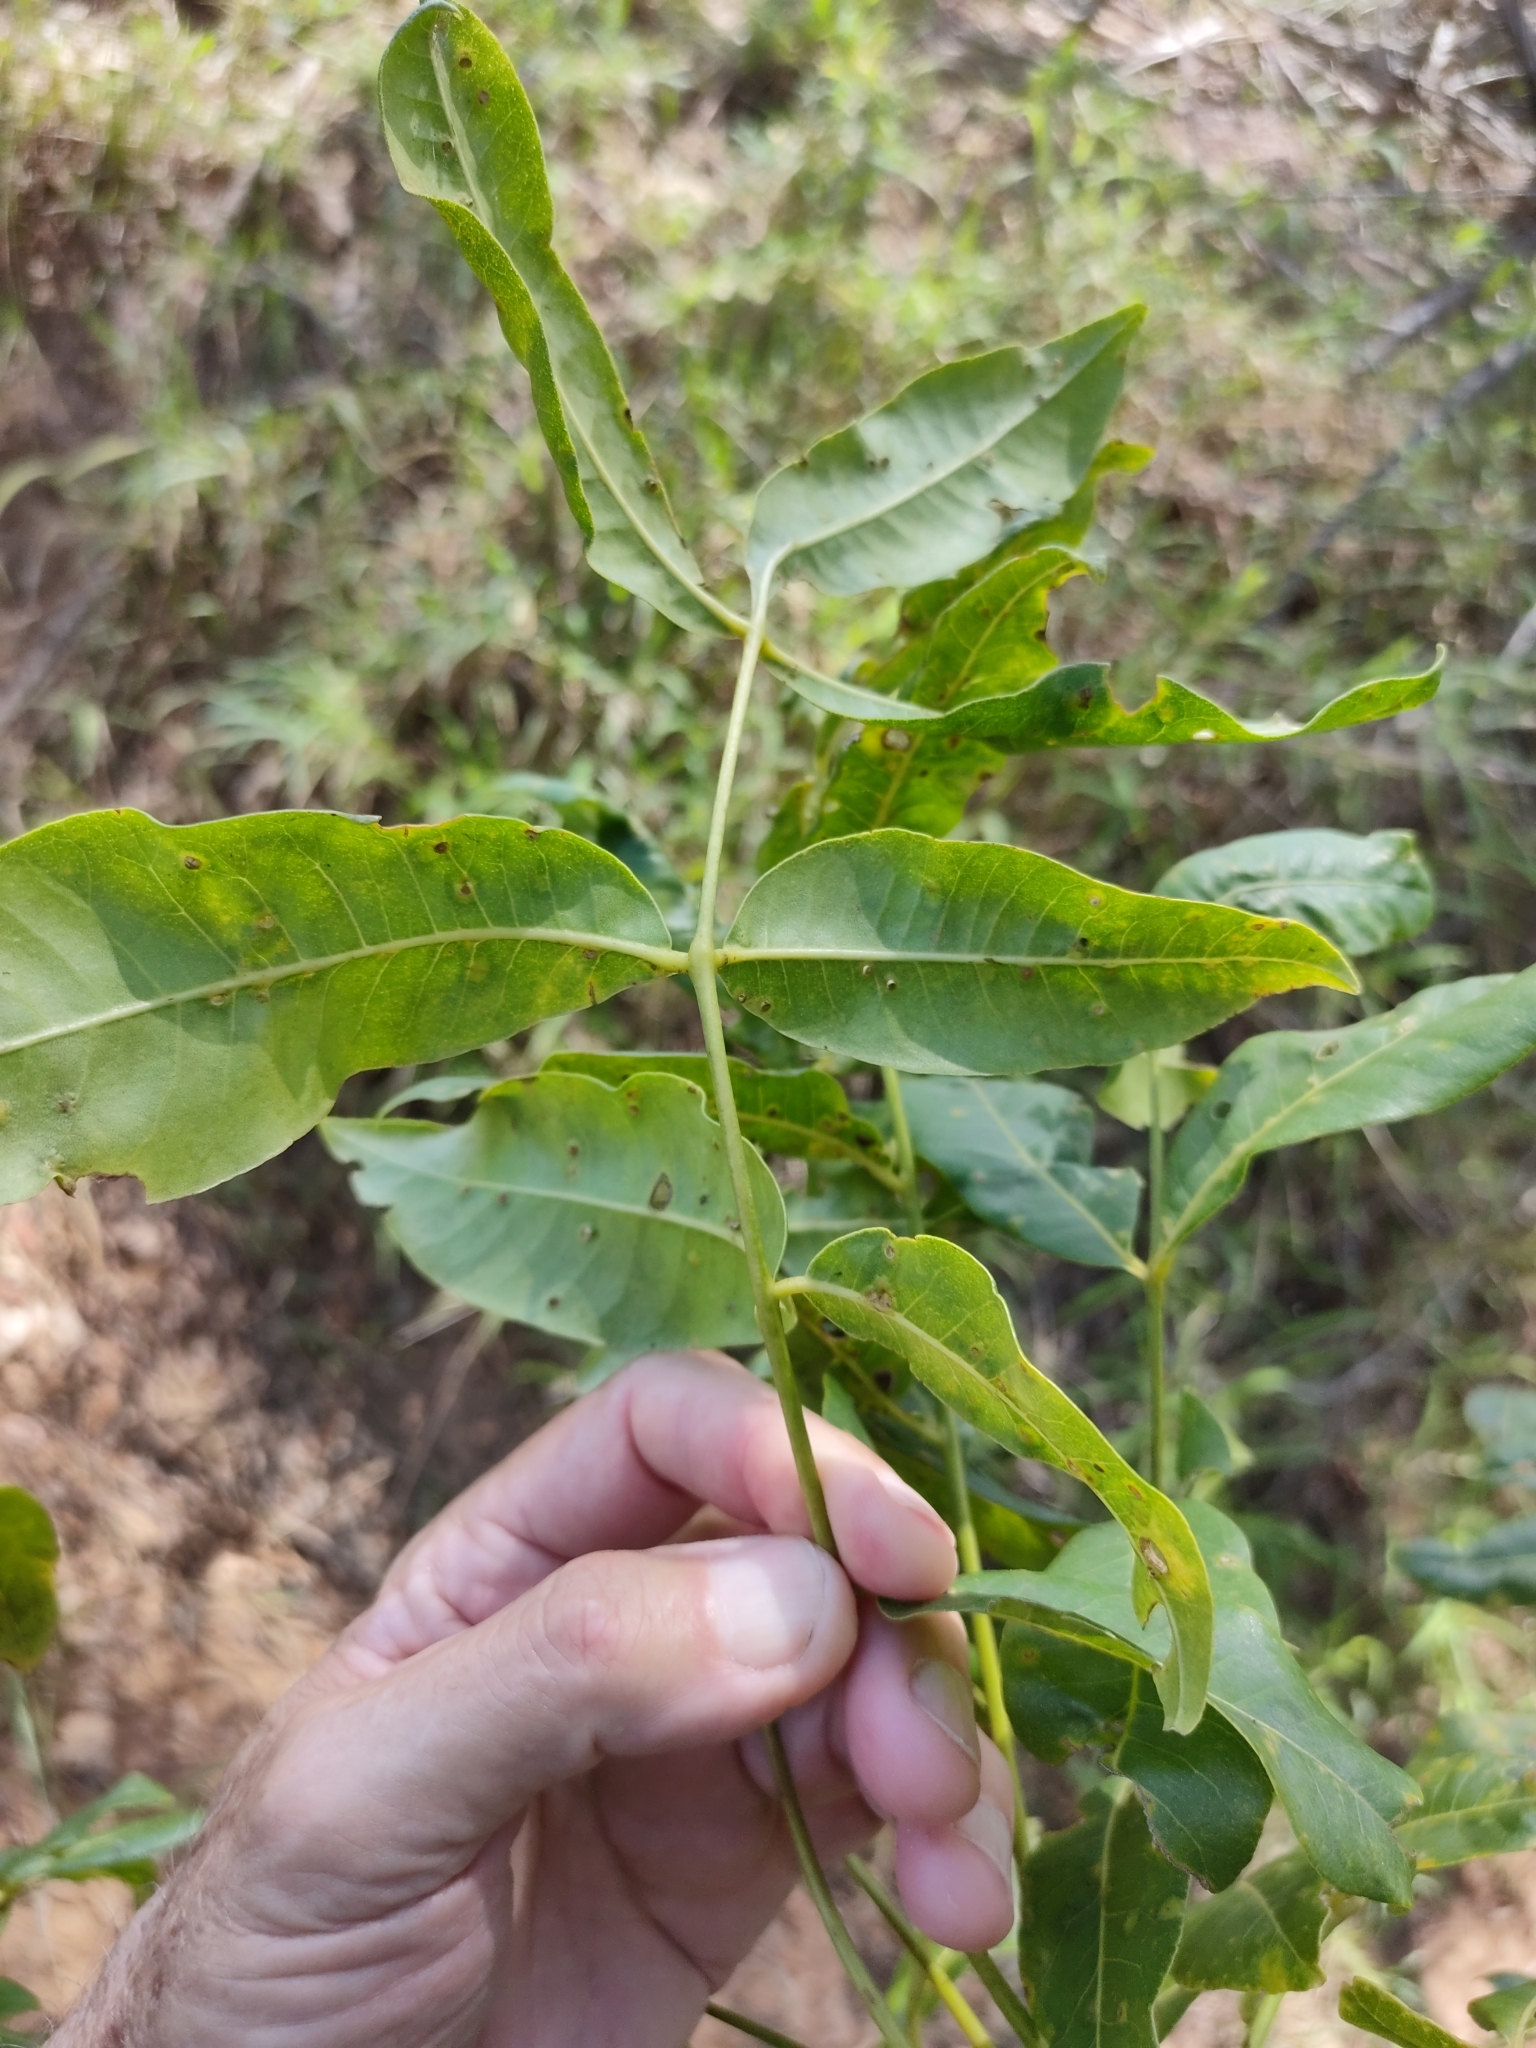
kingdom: Plantae
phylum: Tracheophyta
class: Magnoliopsida
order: Sapindales
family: Rutaceae
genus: Flindersia
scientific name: Flindersia australis
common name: Australian-teak
